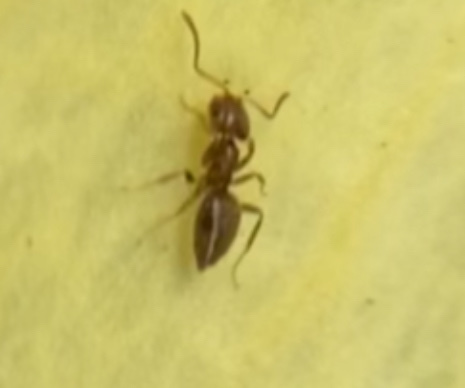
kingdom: Animalia
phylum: Arthropoda
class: Insecta
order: Hymenoptera
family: Formicidae
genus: Brachymyrmex
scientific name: Brachymyrmex obscurior
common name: Obscure rover ant
